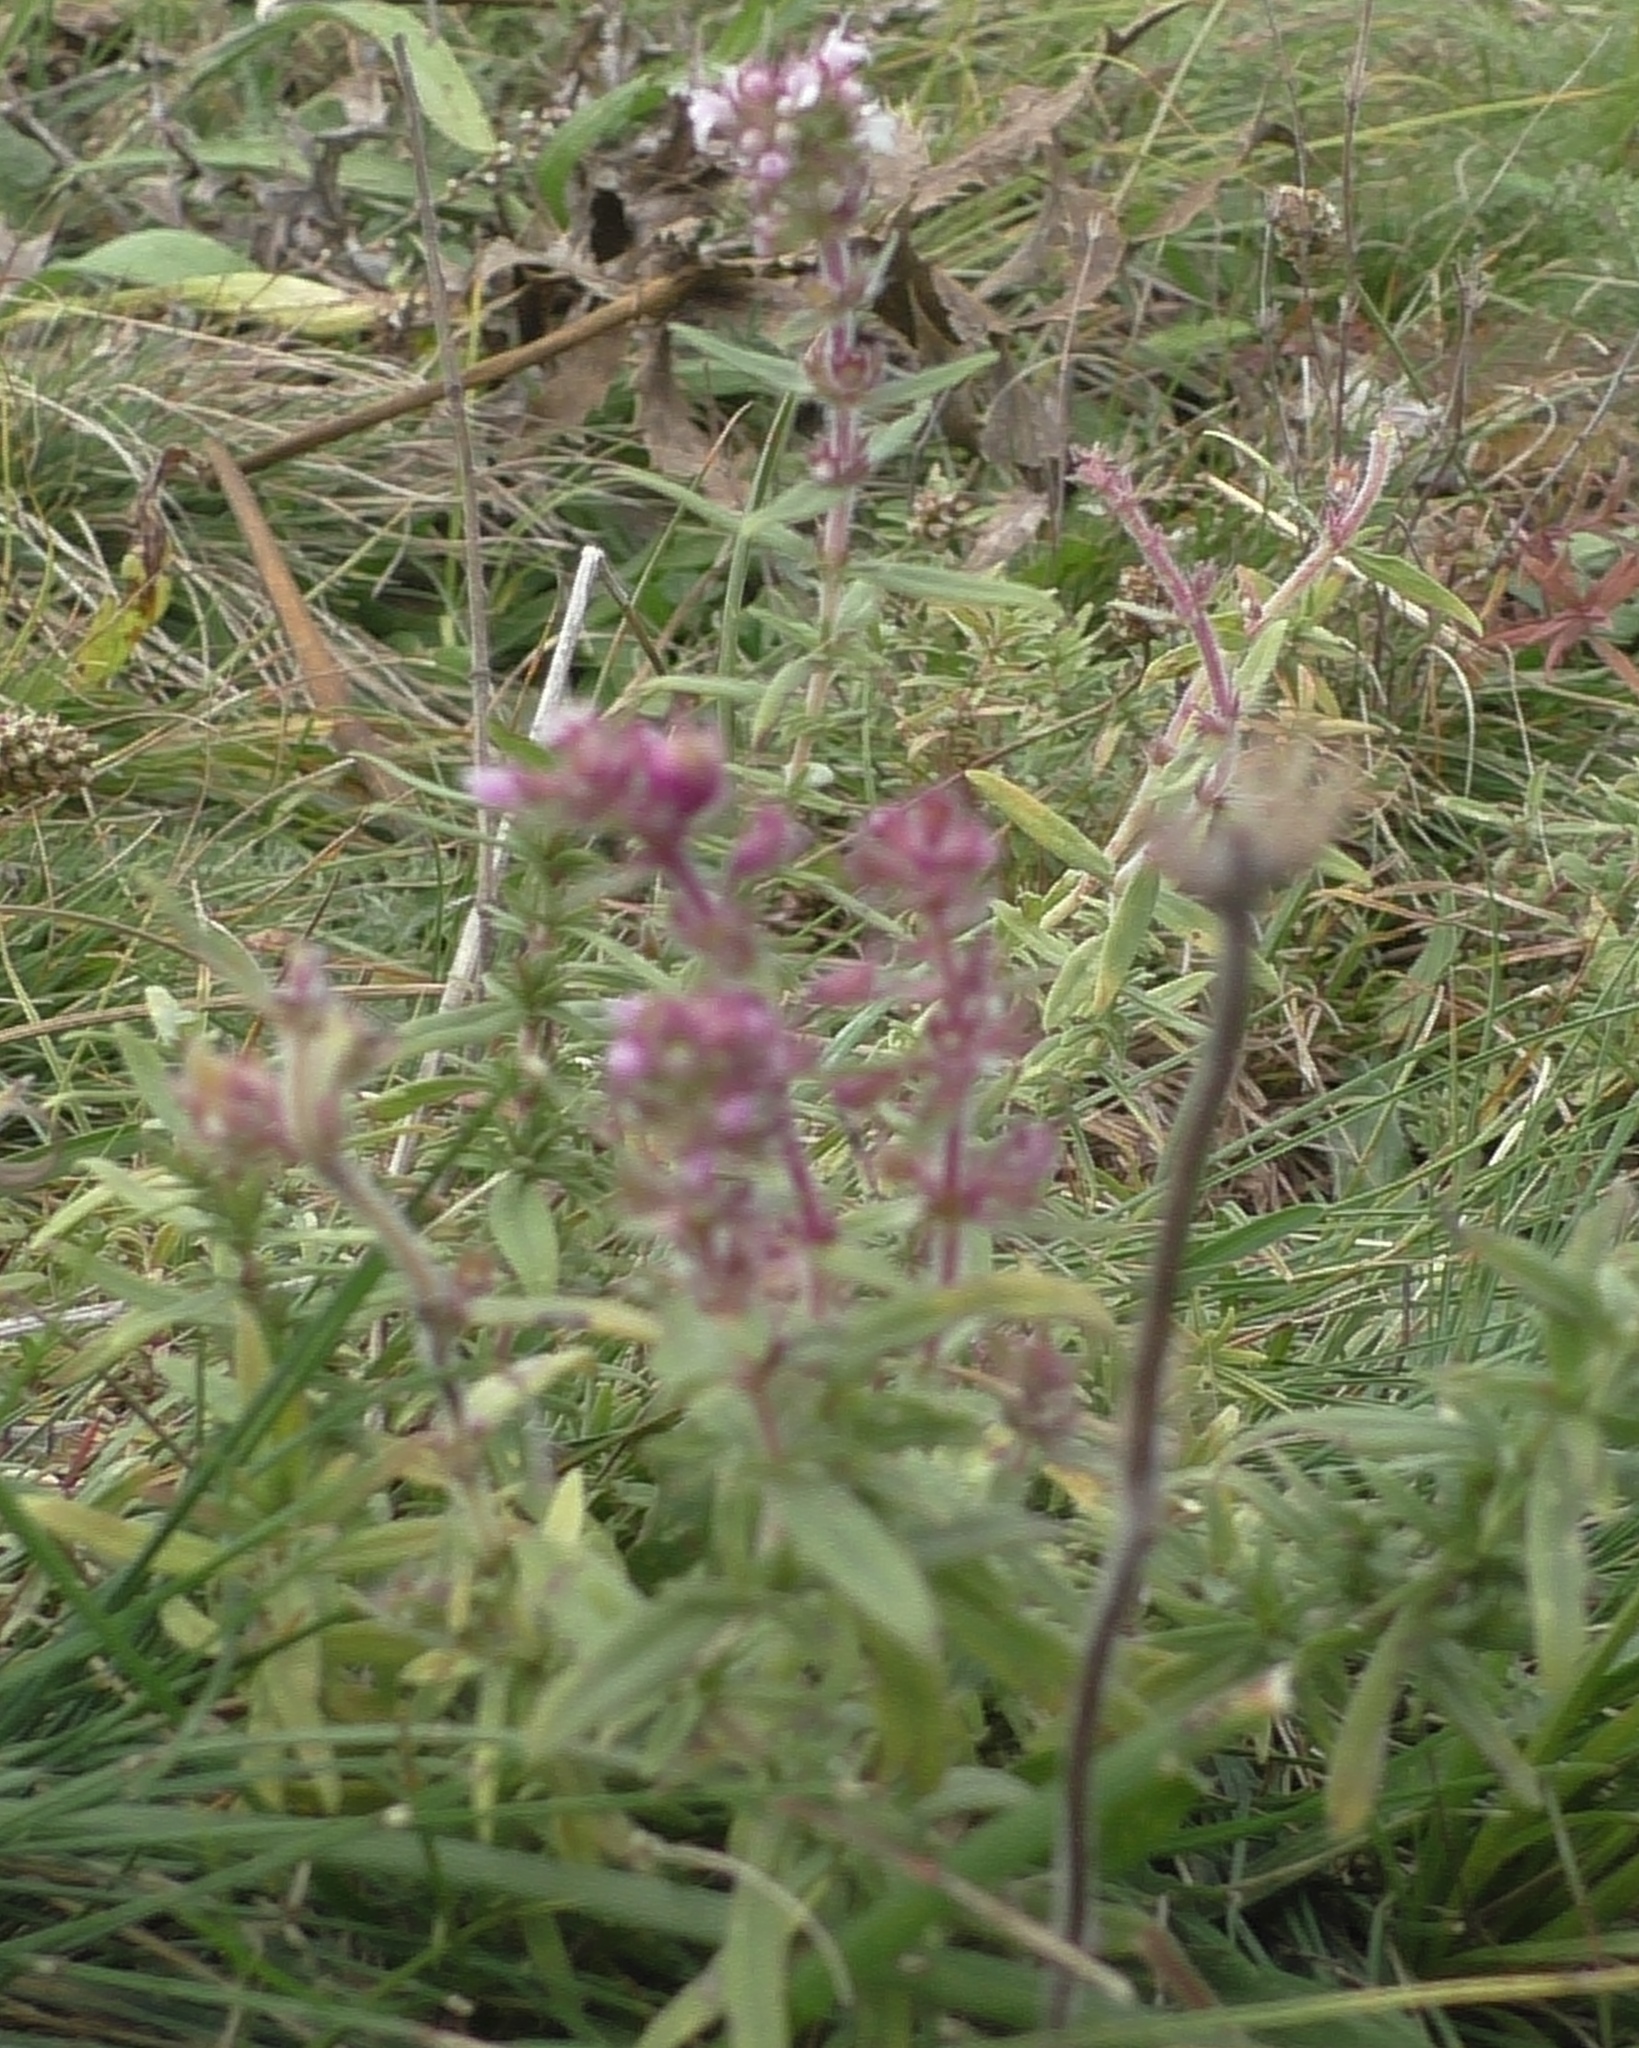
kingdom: Plantae
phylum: Tracheophyta
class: Magnoliopsida
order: Lamiales
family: Orobanchaceae
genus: Odontites
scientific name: Odontites vulgaris
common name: Broomrape
